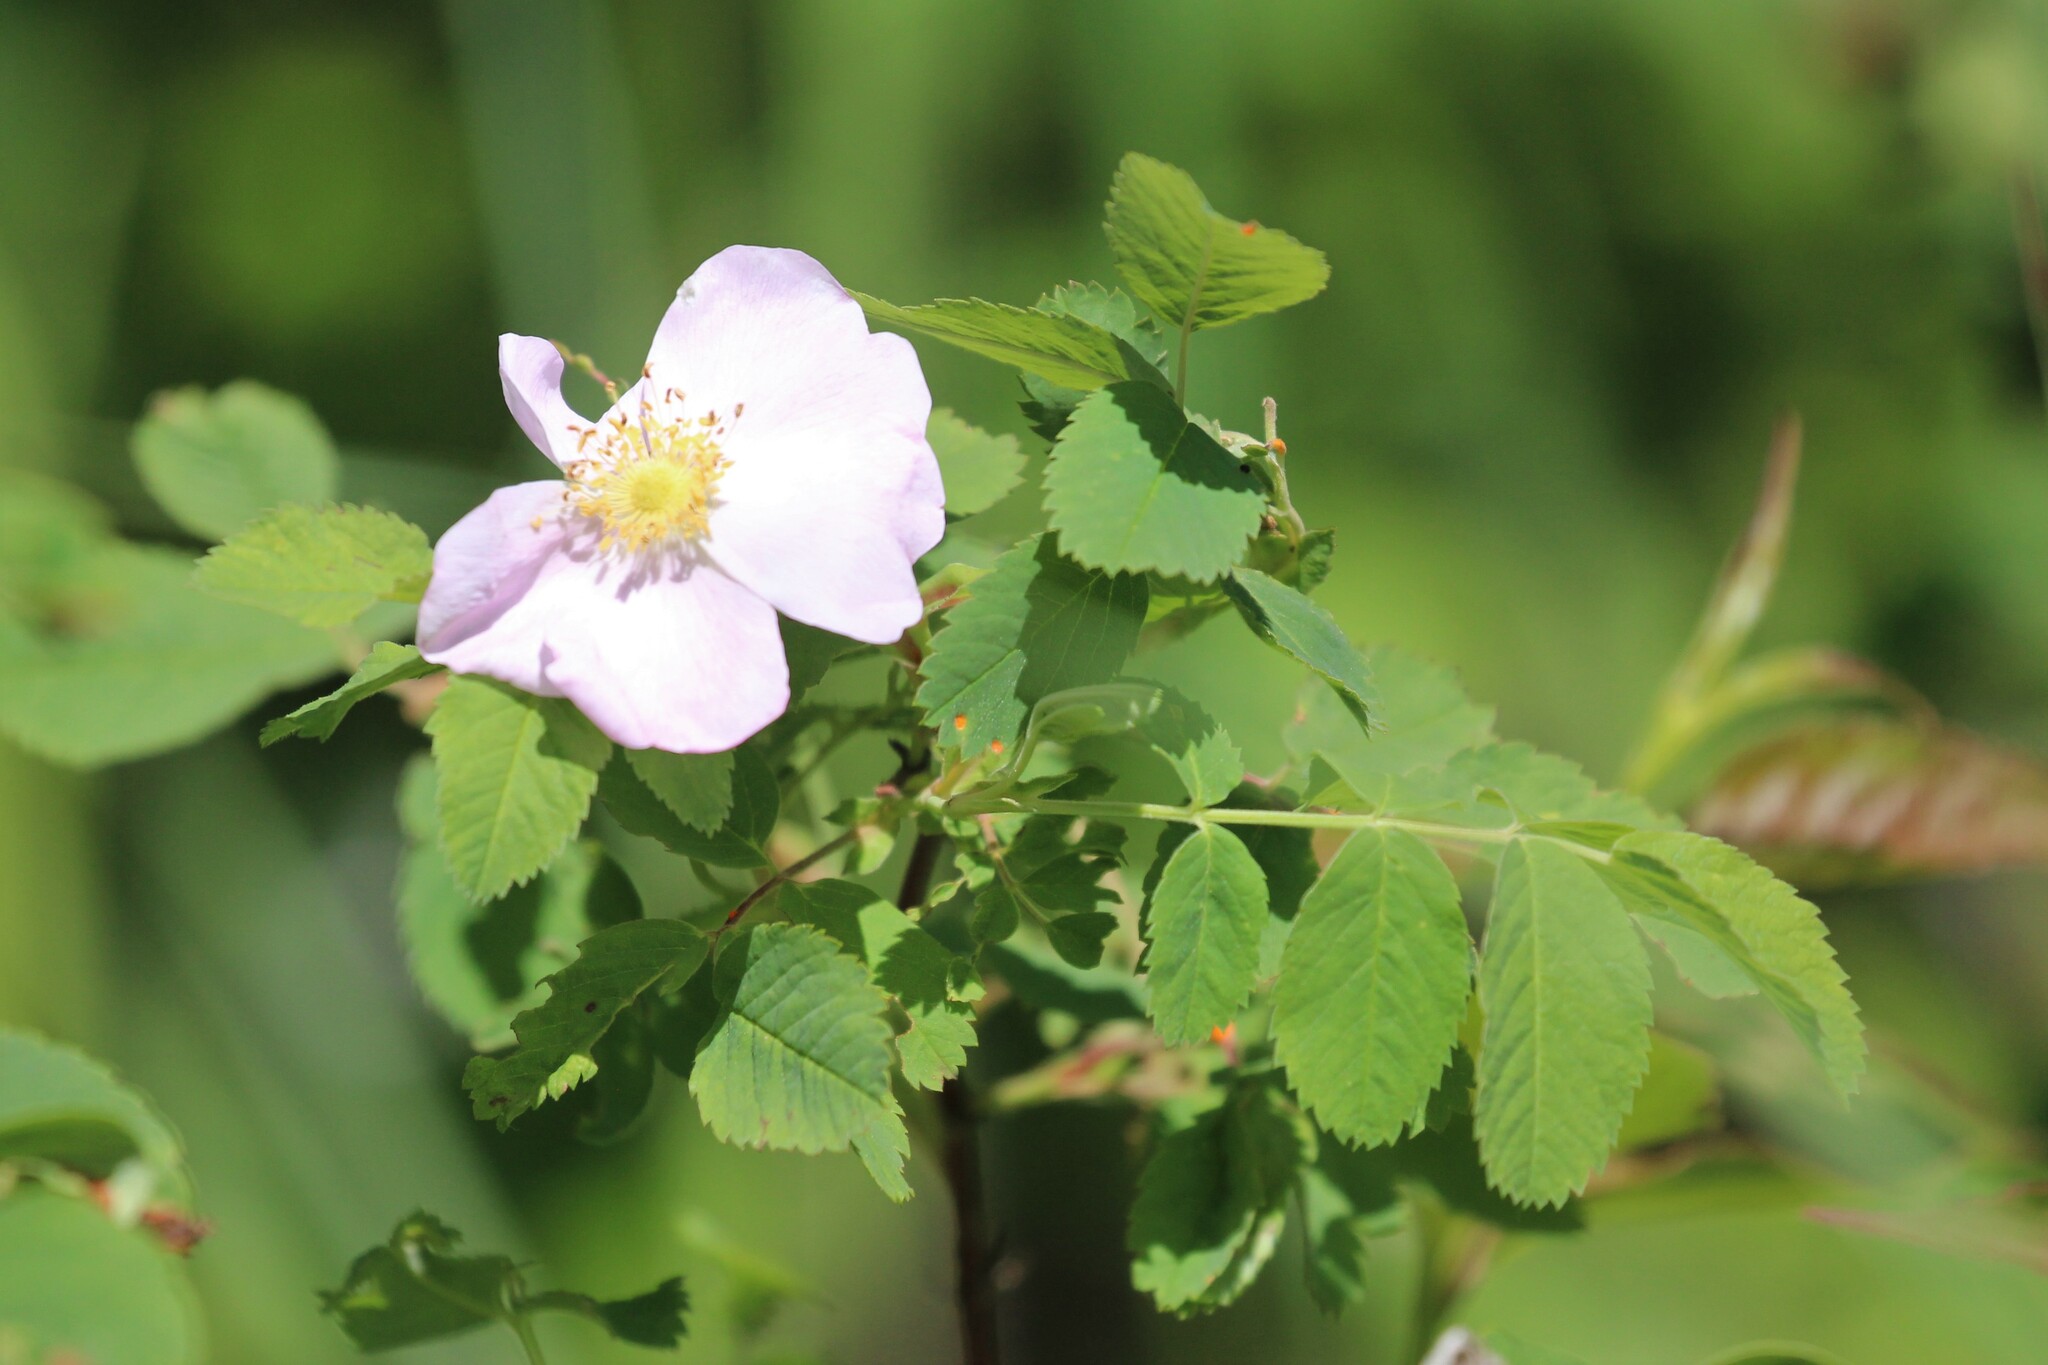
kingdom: Plantae
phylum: Tracheophyta
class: Magnoliopsida
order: Rosales
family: Rosaceae
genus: Rosa
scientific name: Rosa acicularis
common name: Prickly rose
